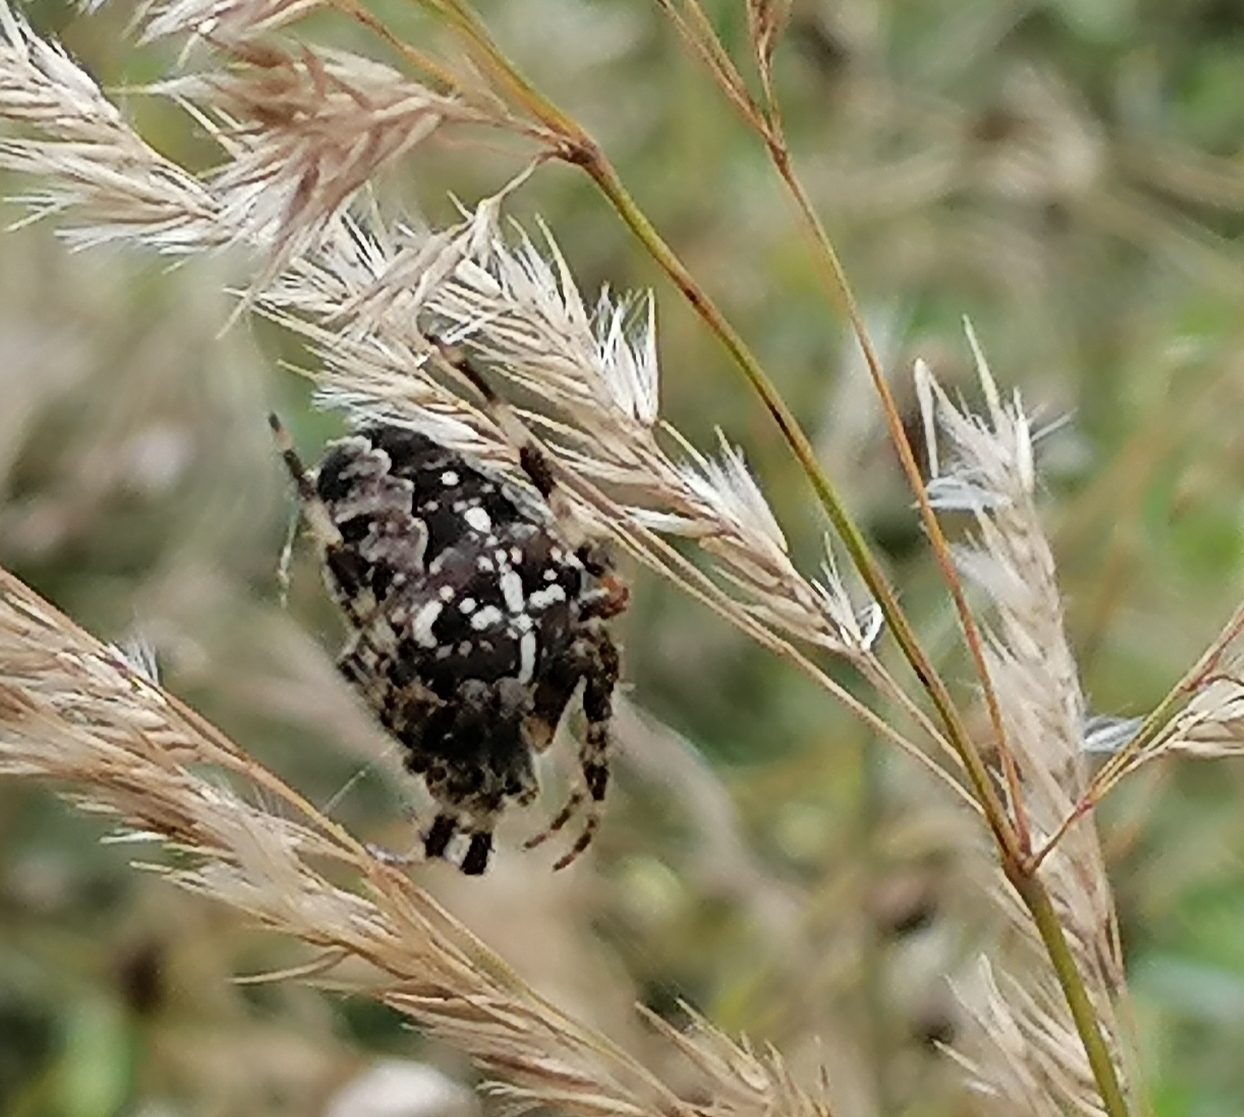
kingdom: Animalia
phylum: Arthropoda
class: Arachnida
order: Araneae
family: Araneidae
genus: Araneus
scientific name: Araneus diadematus
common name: Cross orbweaver
